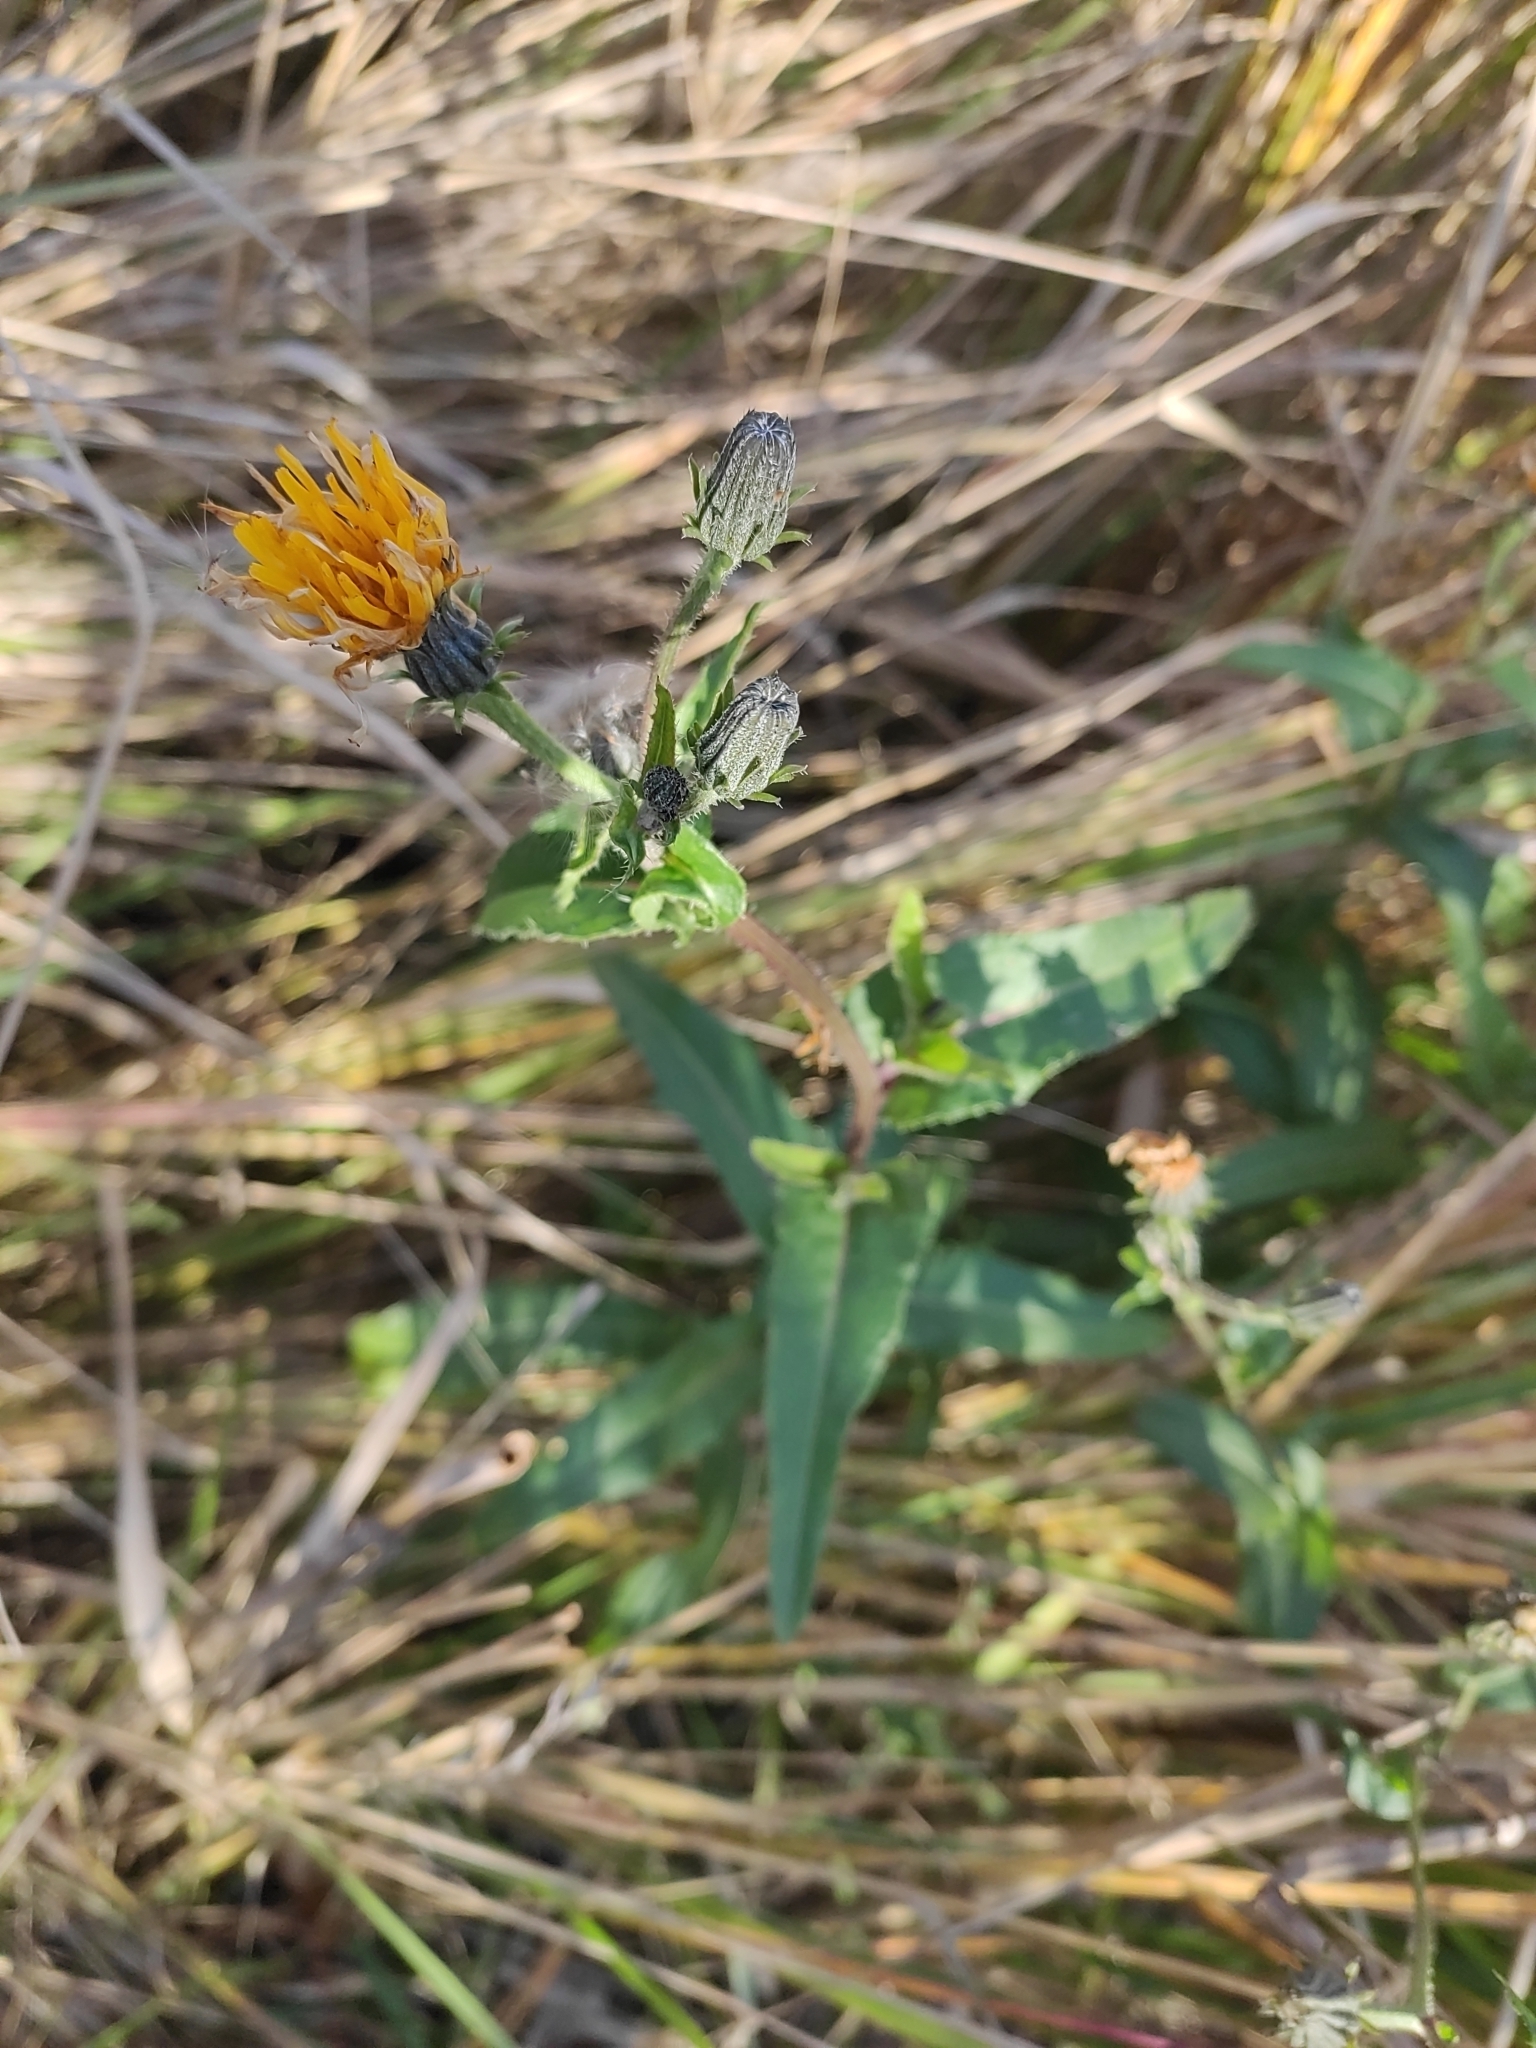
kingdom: Plantae
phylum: Tracheophyta
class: Magnoliopsida
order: Asterales
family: Asteraceae
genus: Picris
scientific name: Picris hieracioides
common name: Hawkweed oxtongue
